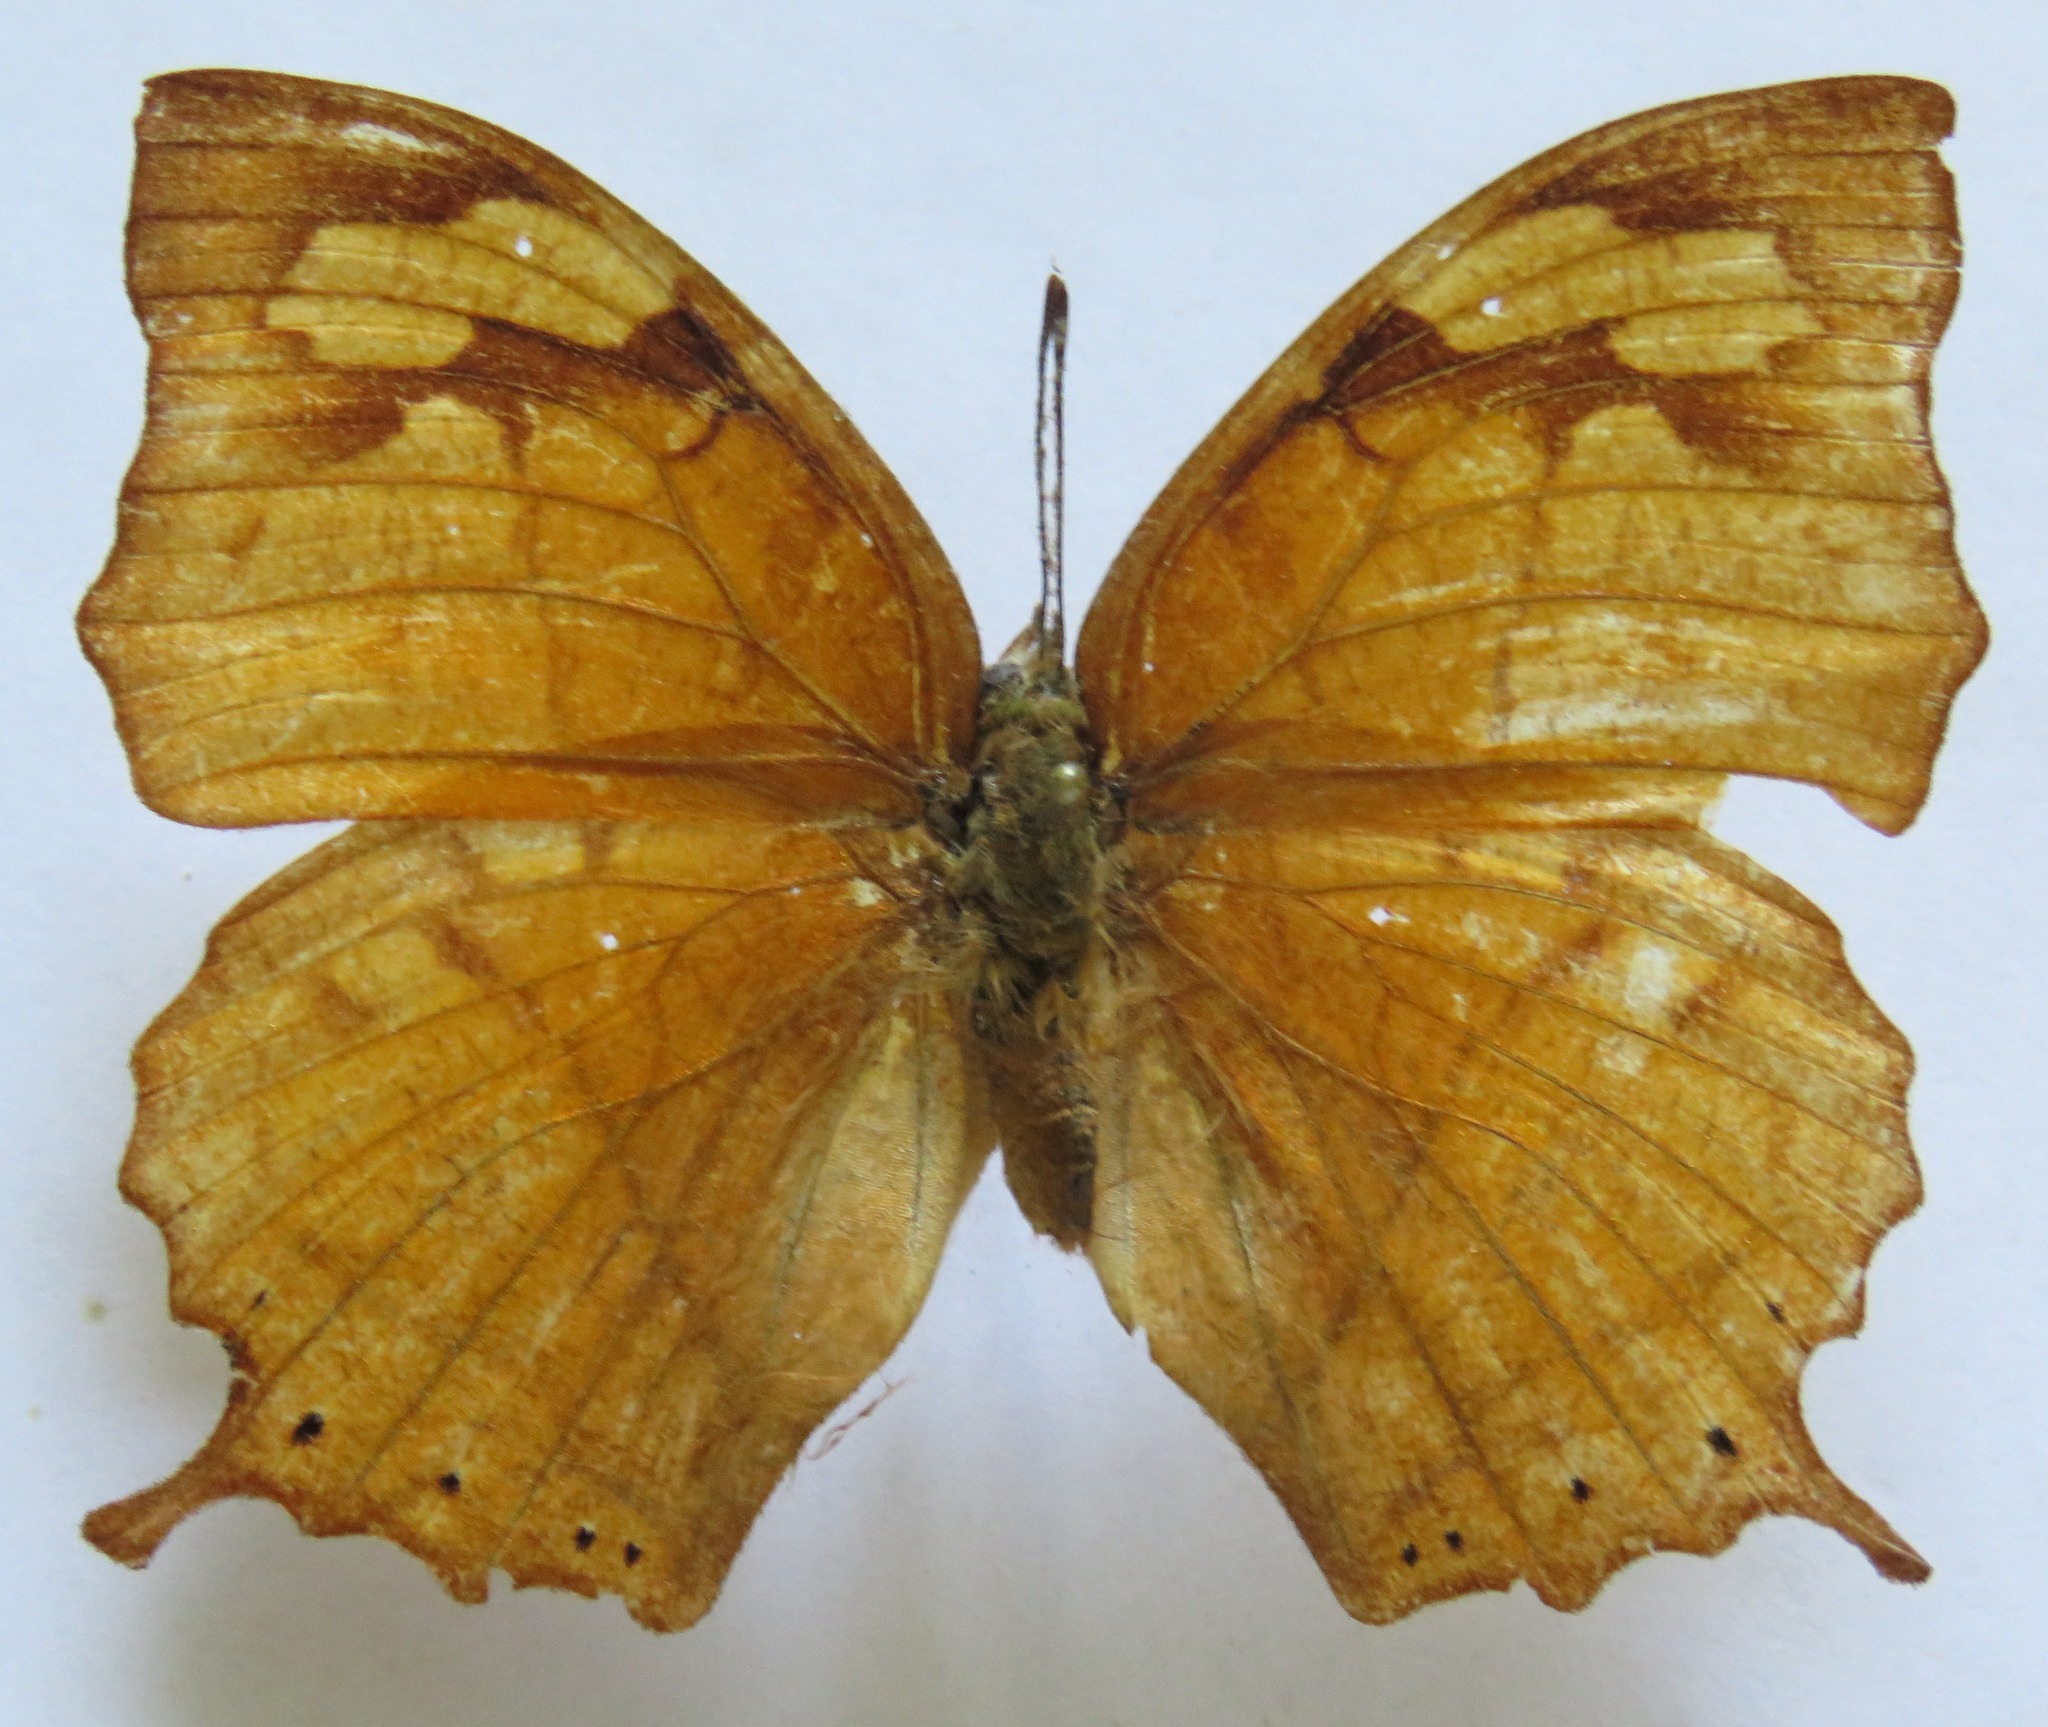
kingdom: Animalia
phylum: Arthropoda
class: Insecta
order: Lepidoptera
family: Nymphalidae
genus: Fountainea
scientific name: Fountainea
